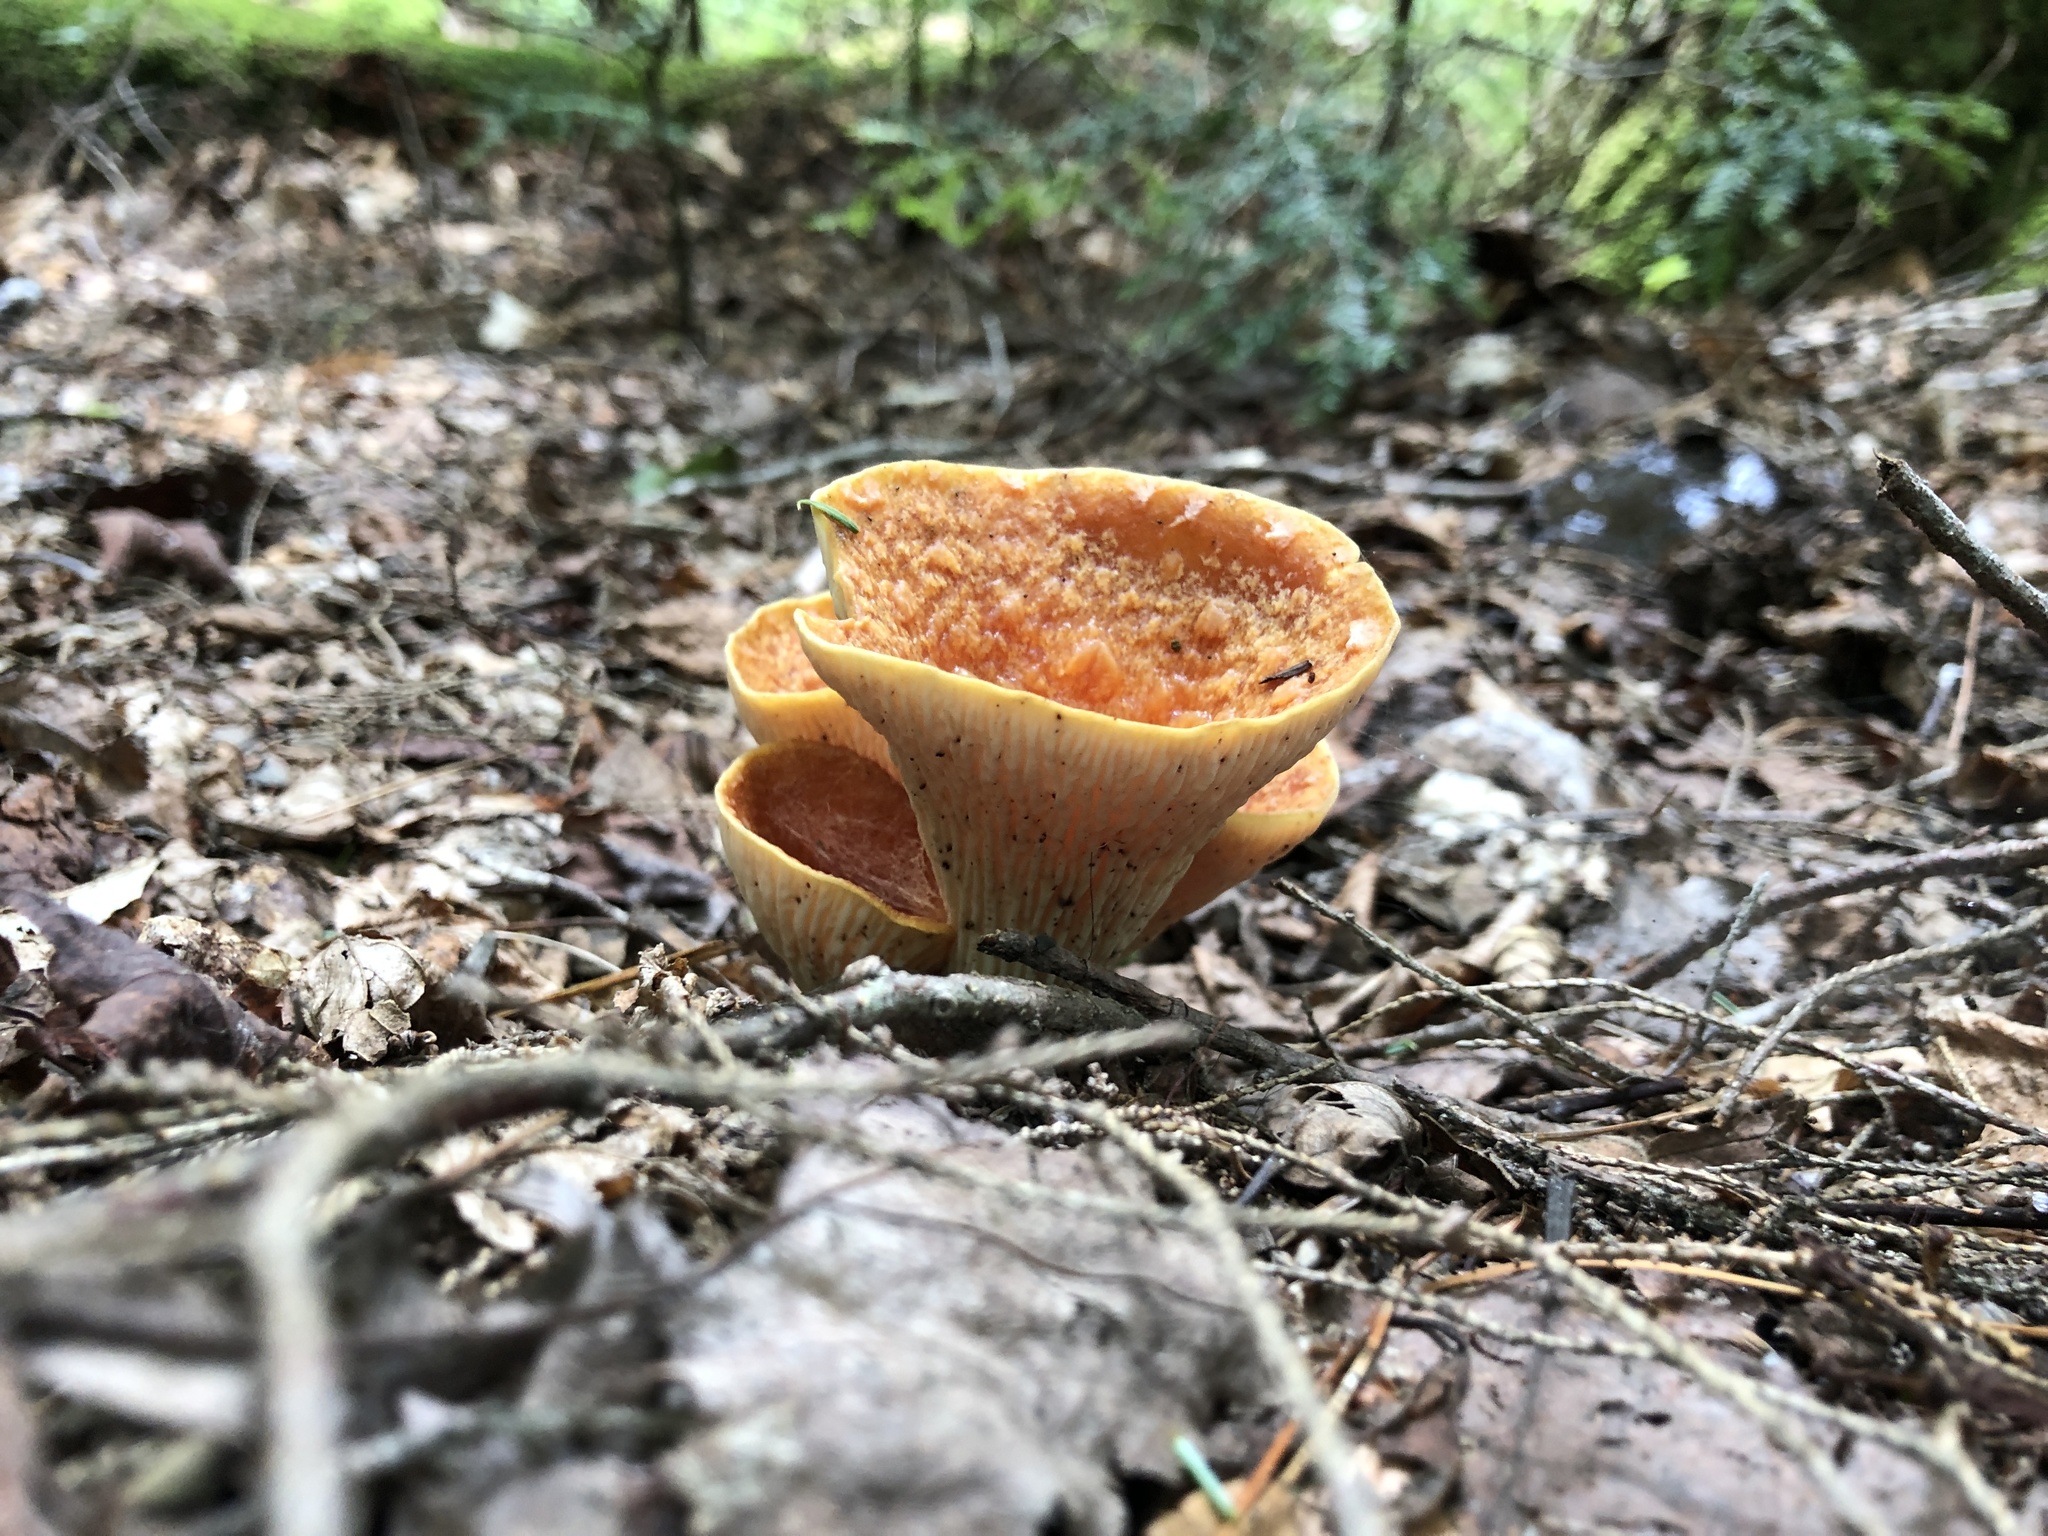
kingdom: Fungi
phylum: Basidiomycota
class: Agaricomycetes
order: Gomphales
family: Gomphaceae
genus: Turbinellus
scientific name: Turbinellus floccosus
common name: Scaly chanterelle
